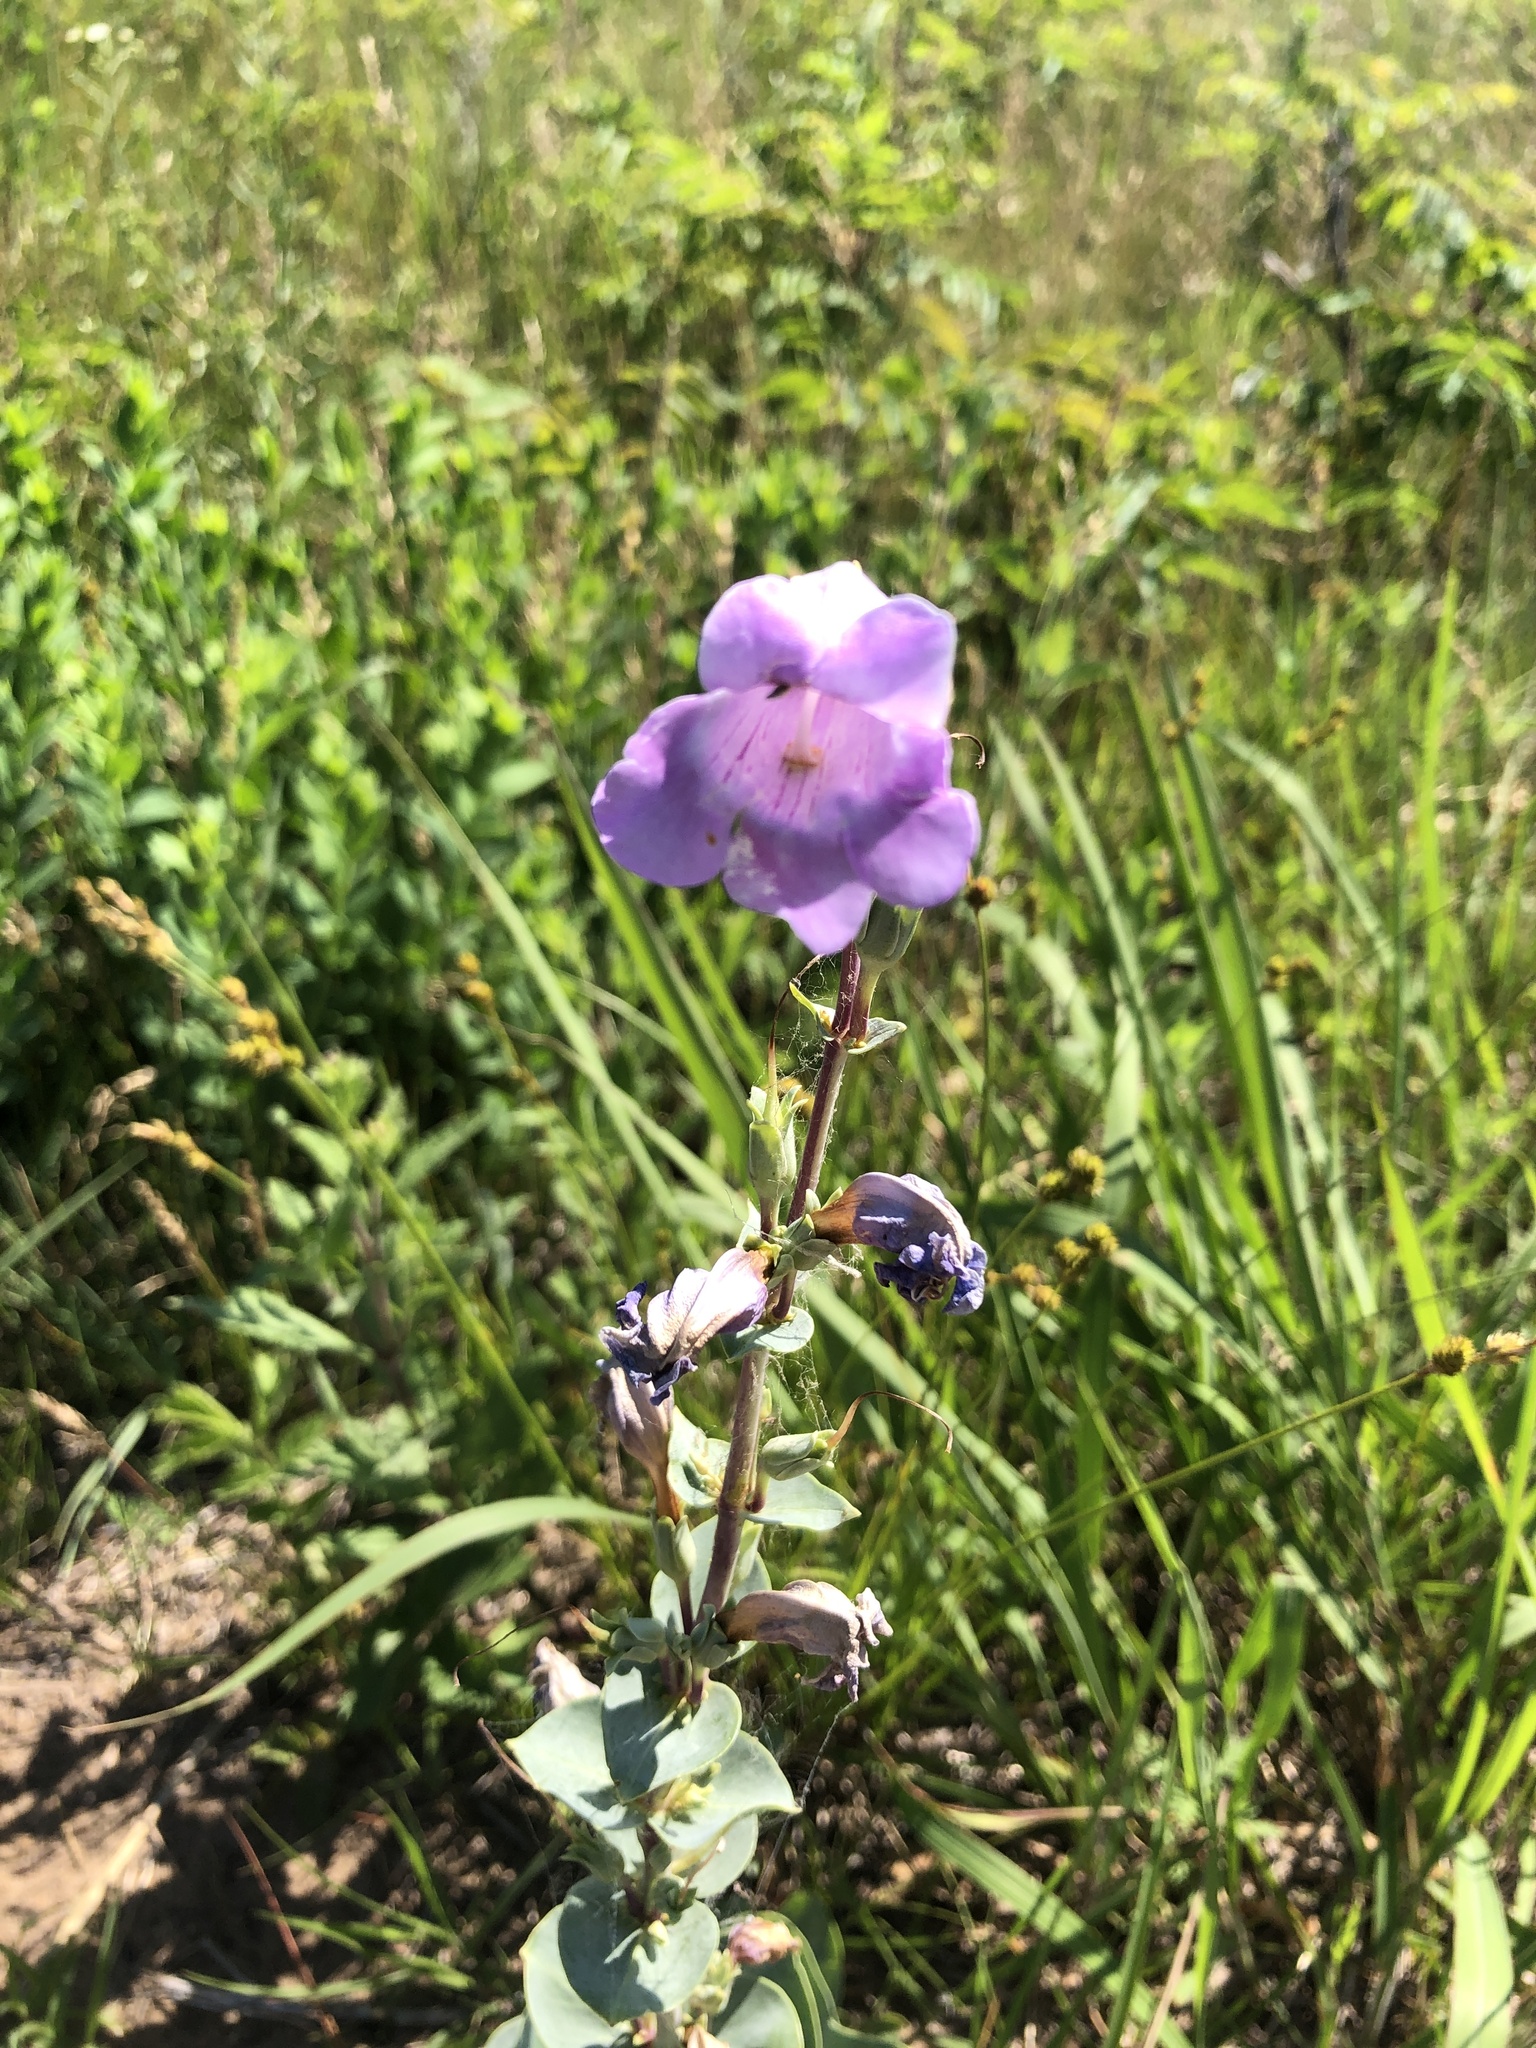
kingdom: Plantae
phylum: Tracheophyta
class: Magnoliopsida
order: Lamiales
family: Plantaginaceae
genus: Penstemon
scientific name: Penstemon
